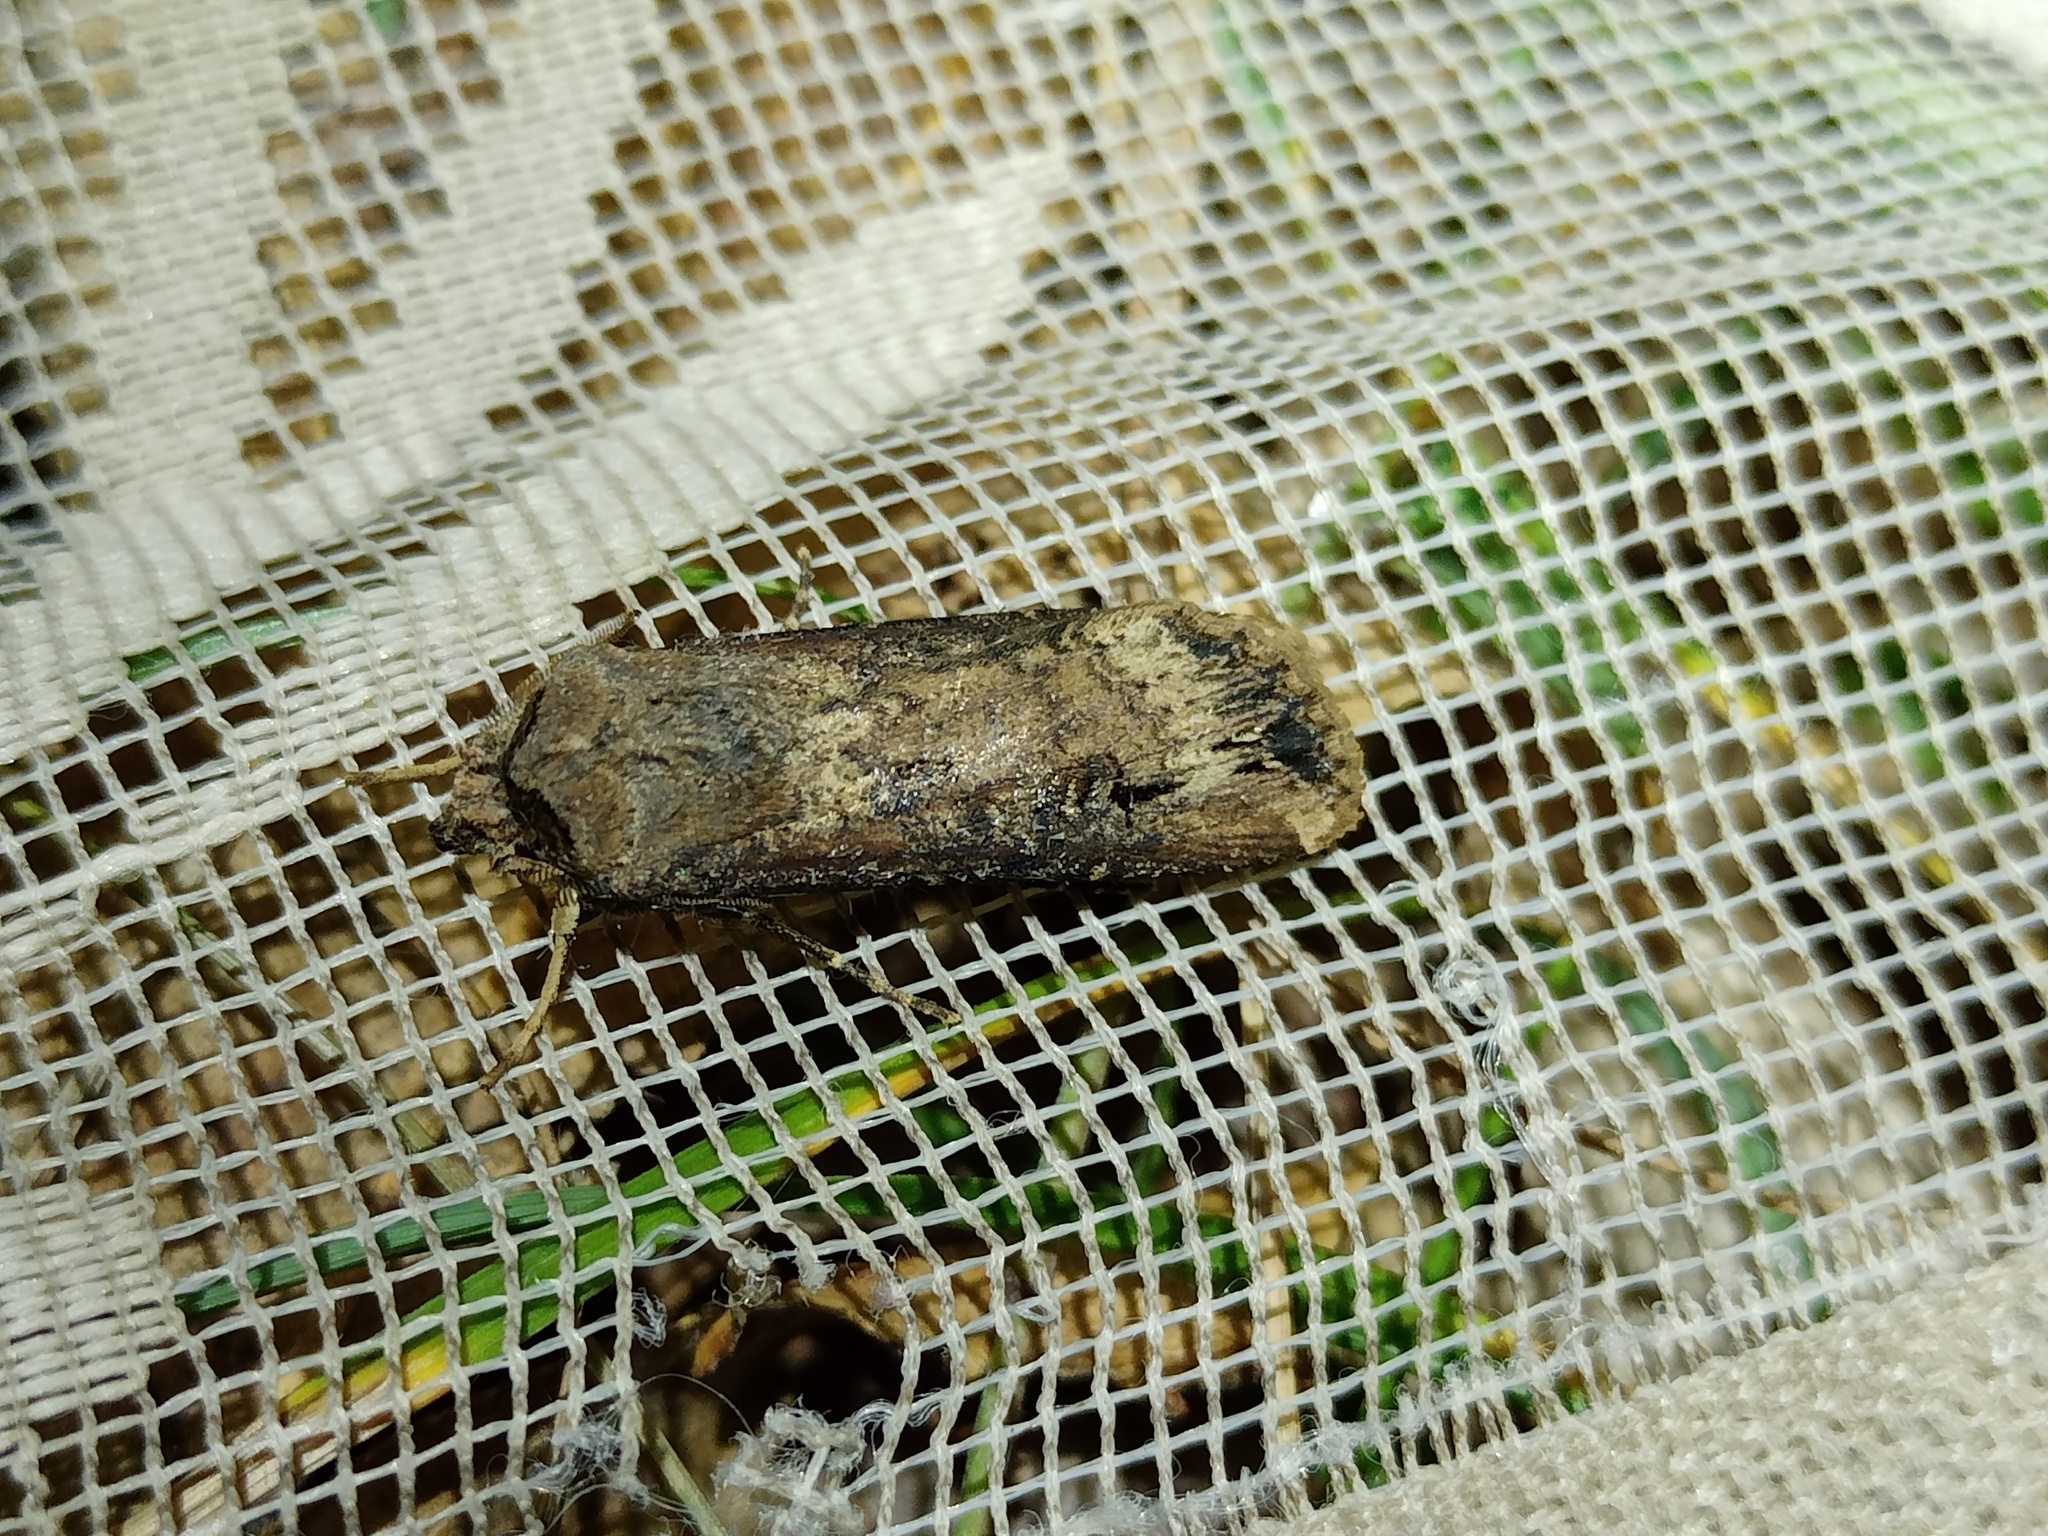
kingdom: Animalia
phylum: Arthropoda
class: Insecta
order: Lepidoptera
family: Noctuidae
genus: Agrotis
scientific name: Agrotis ipsilon
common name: Dark sword-grass
